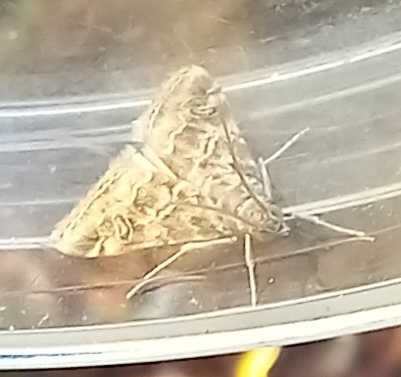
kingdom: Animalia
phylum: Arthropoda
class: Insecta
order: Lepidoptera
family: Crambidae
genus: Hellula
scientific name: Hellula undalis
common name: Cabbage webworm
